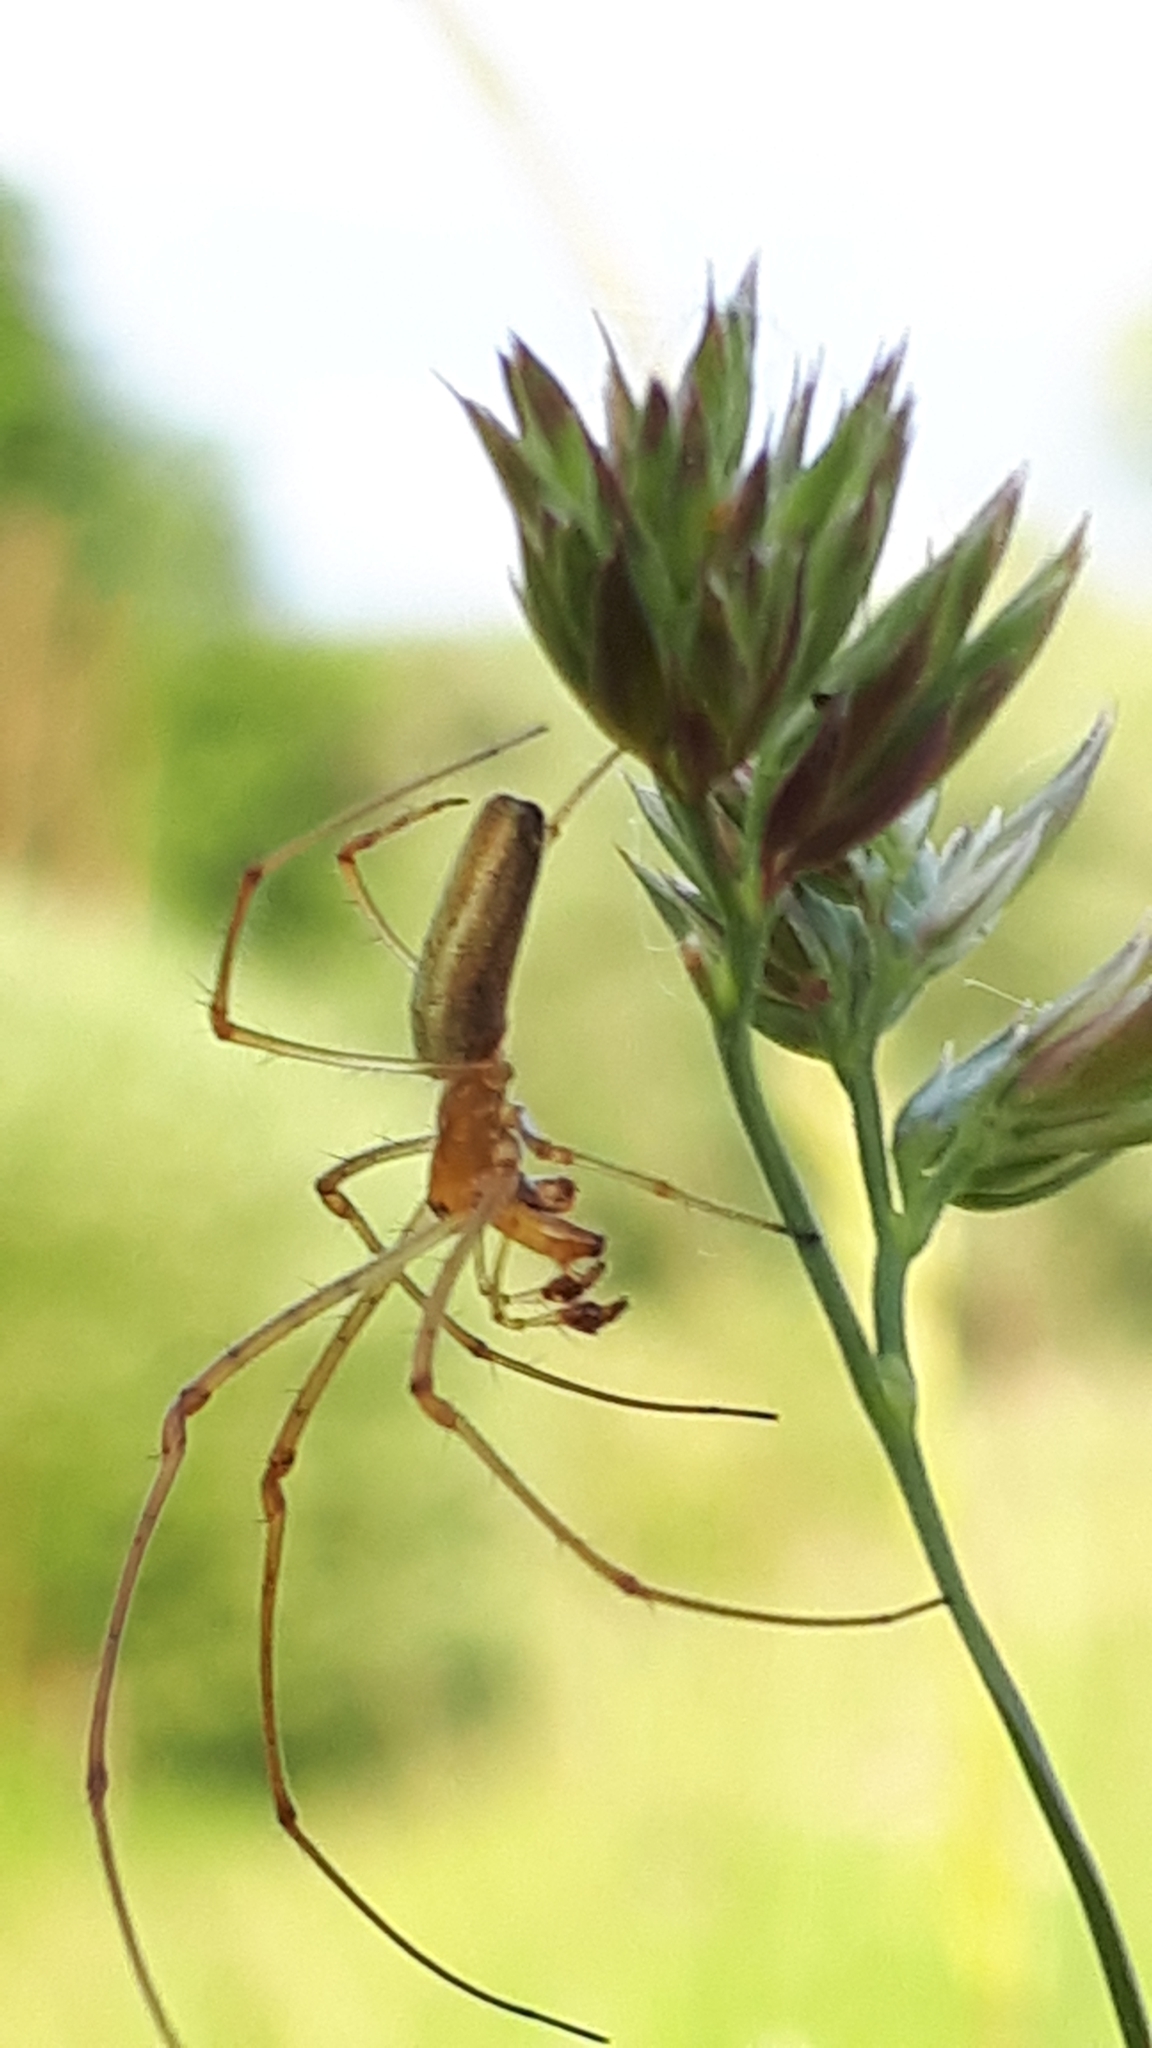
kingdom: Animalia
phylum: Arthropoda
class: Arachnida
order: Araneae
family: Tetragnathidae
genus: Tetragnatha
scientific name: Tetragnatha extensa
